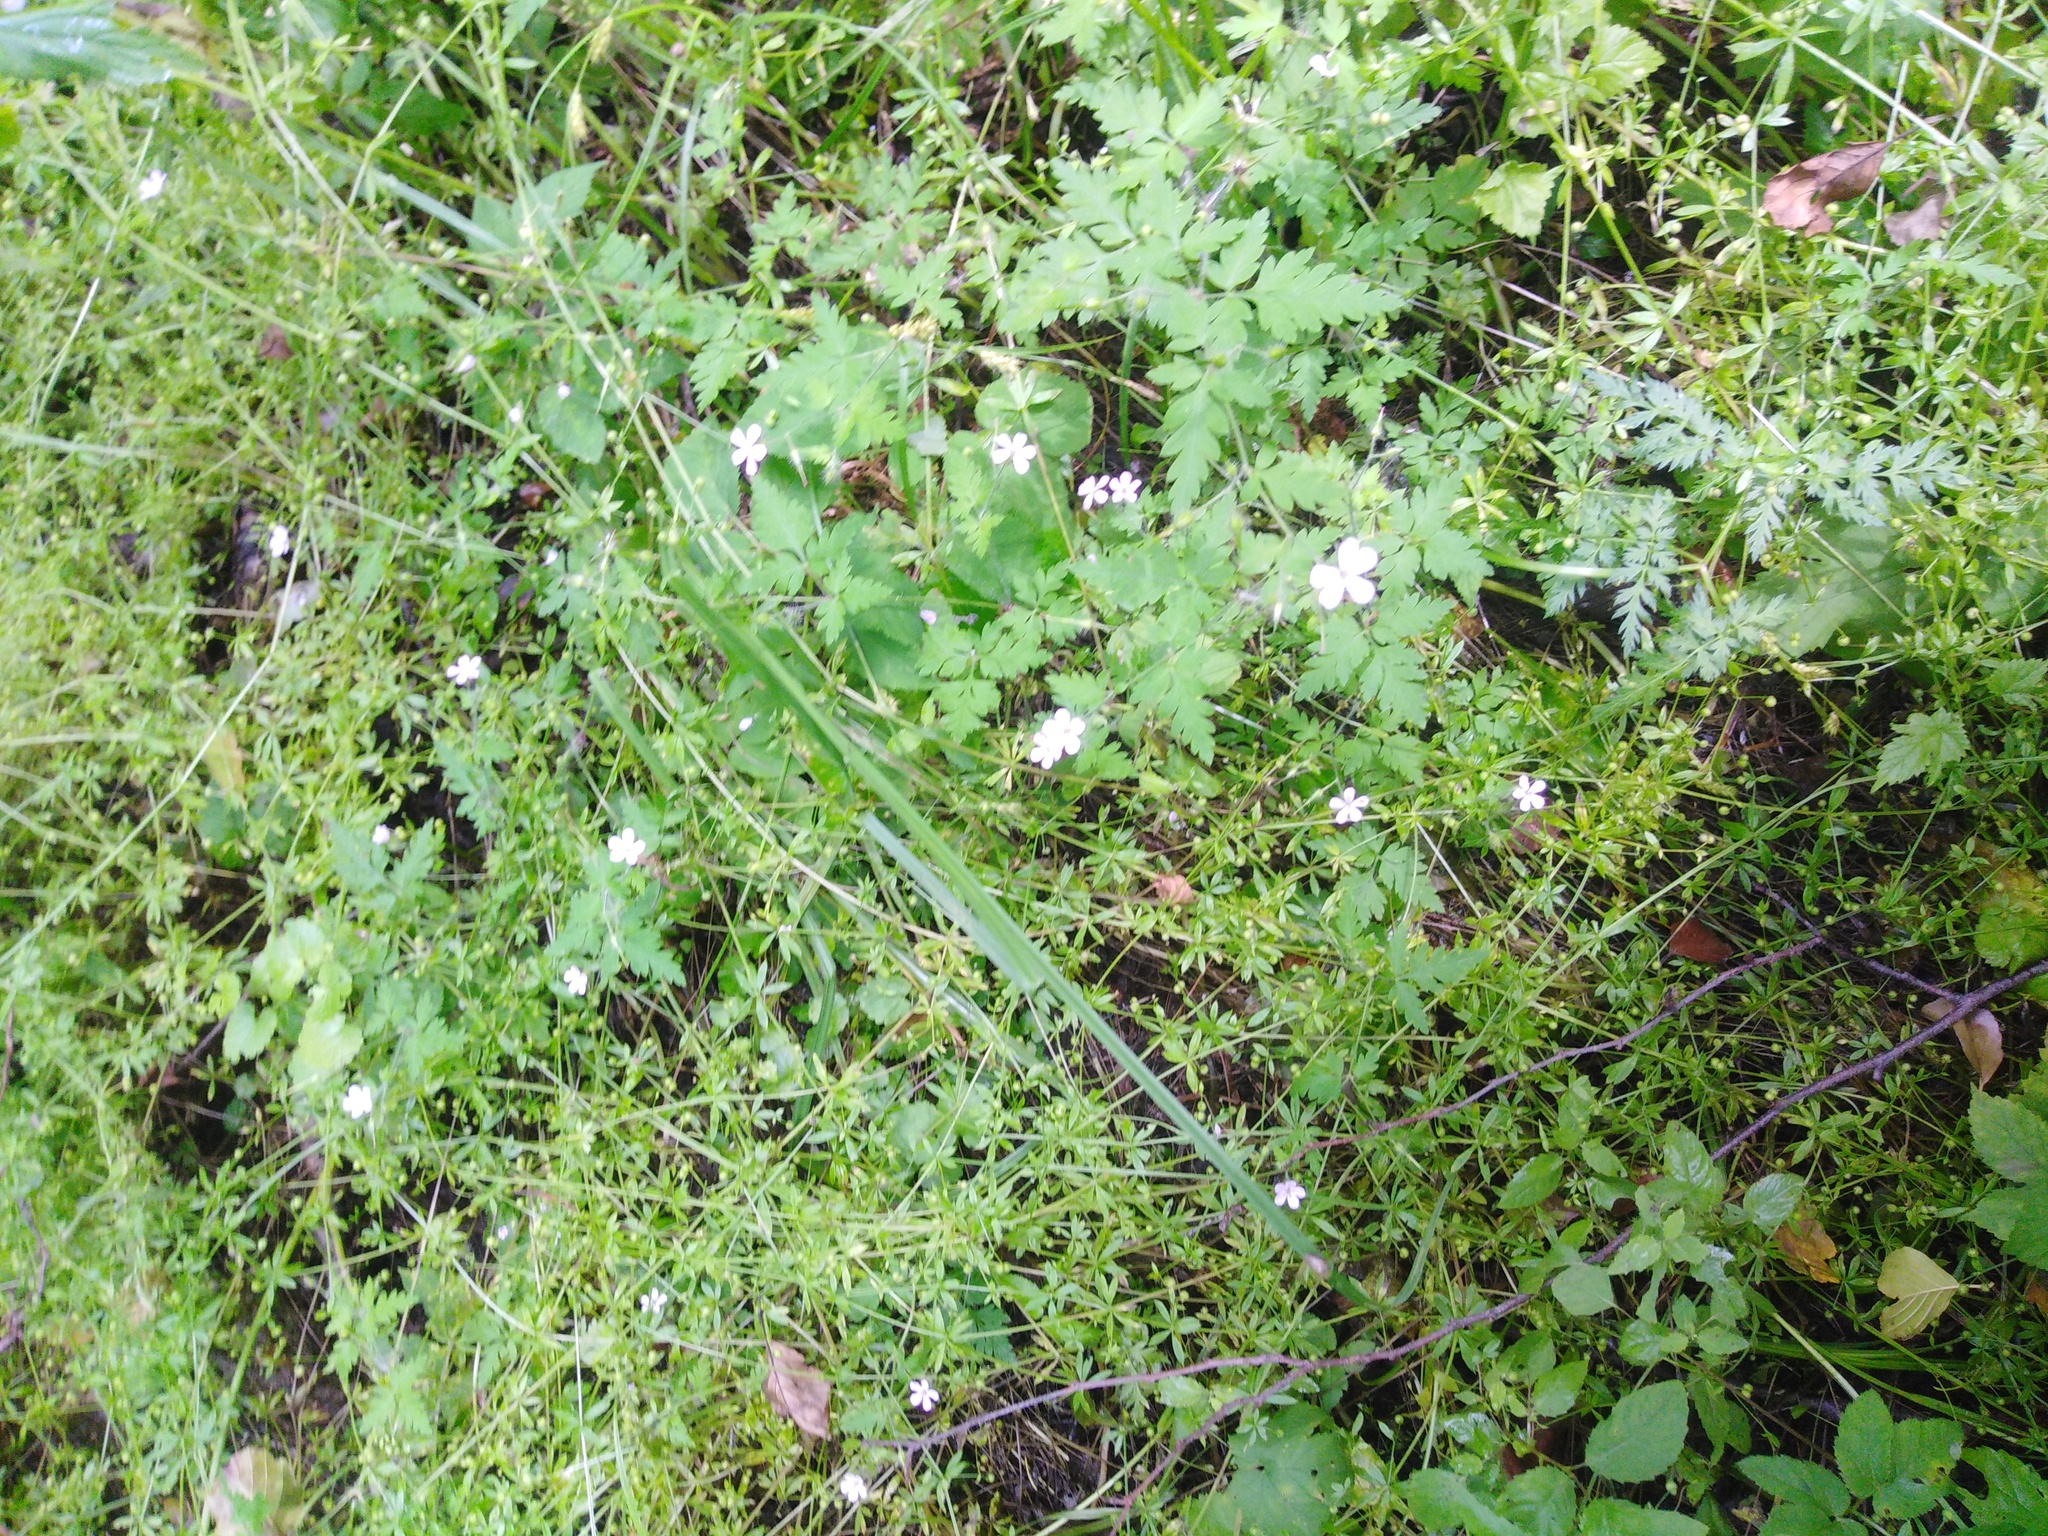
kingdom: Plantae
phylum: Tracheophyta
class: Magnoliopsida
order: Geraniales
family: Geraniaceae
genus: Geranium
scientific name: Geranium robertianum
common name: Herb-robert
